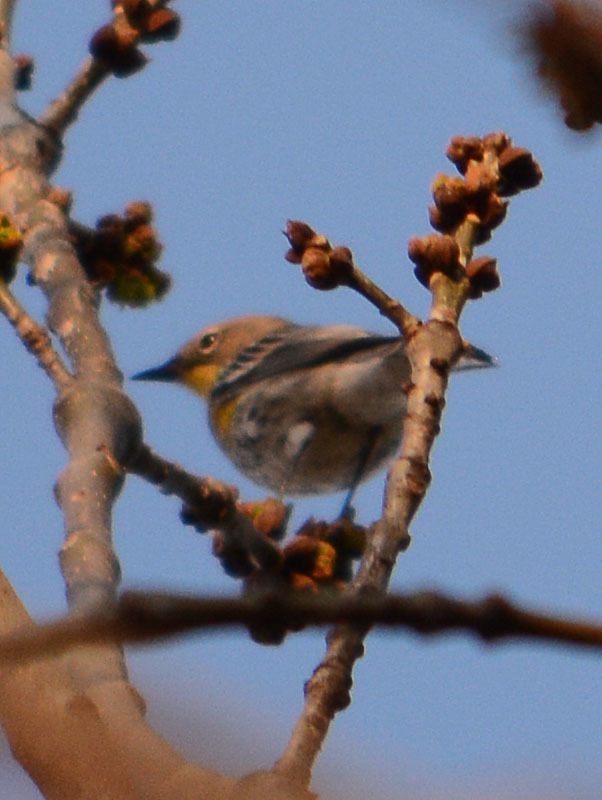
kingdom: Animalia
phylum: Chordata
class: Aves
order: Passeriformes
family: Parulidae
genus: Setophaga
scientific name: Setophaga auduboni
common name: Audubon's warbler
